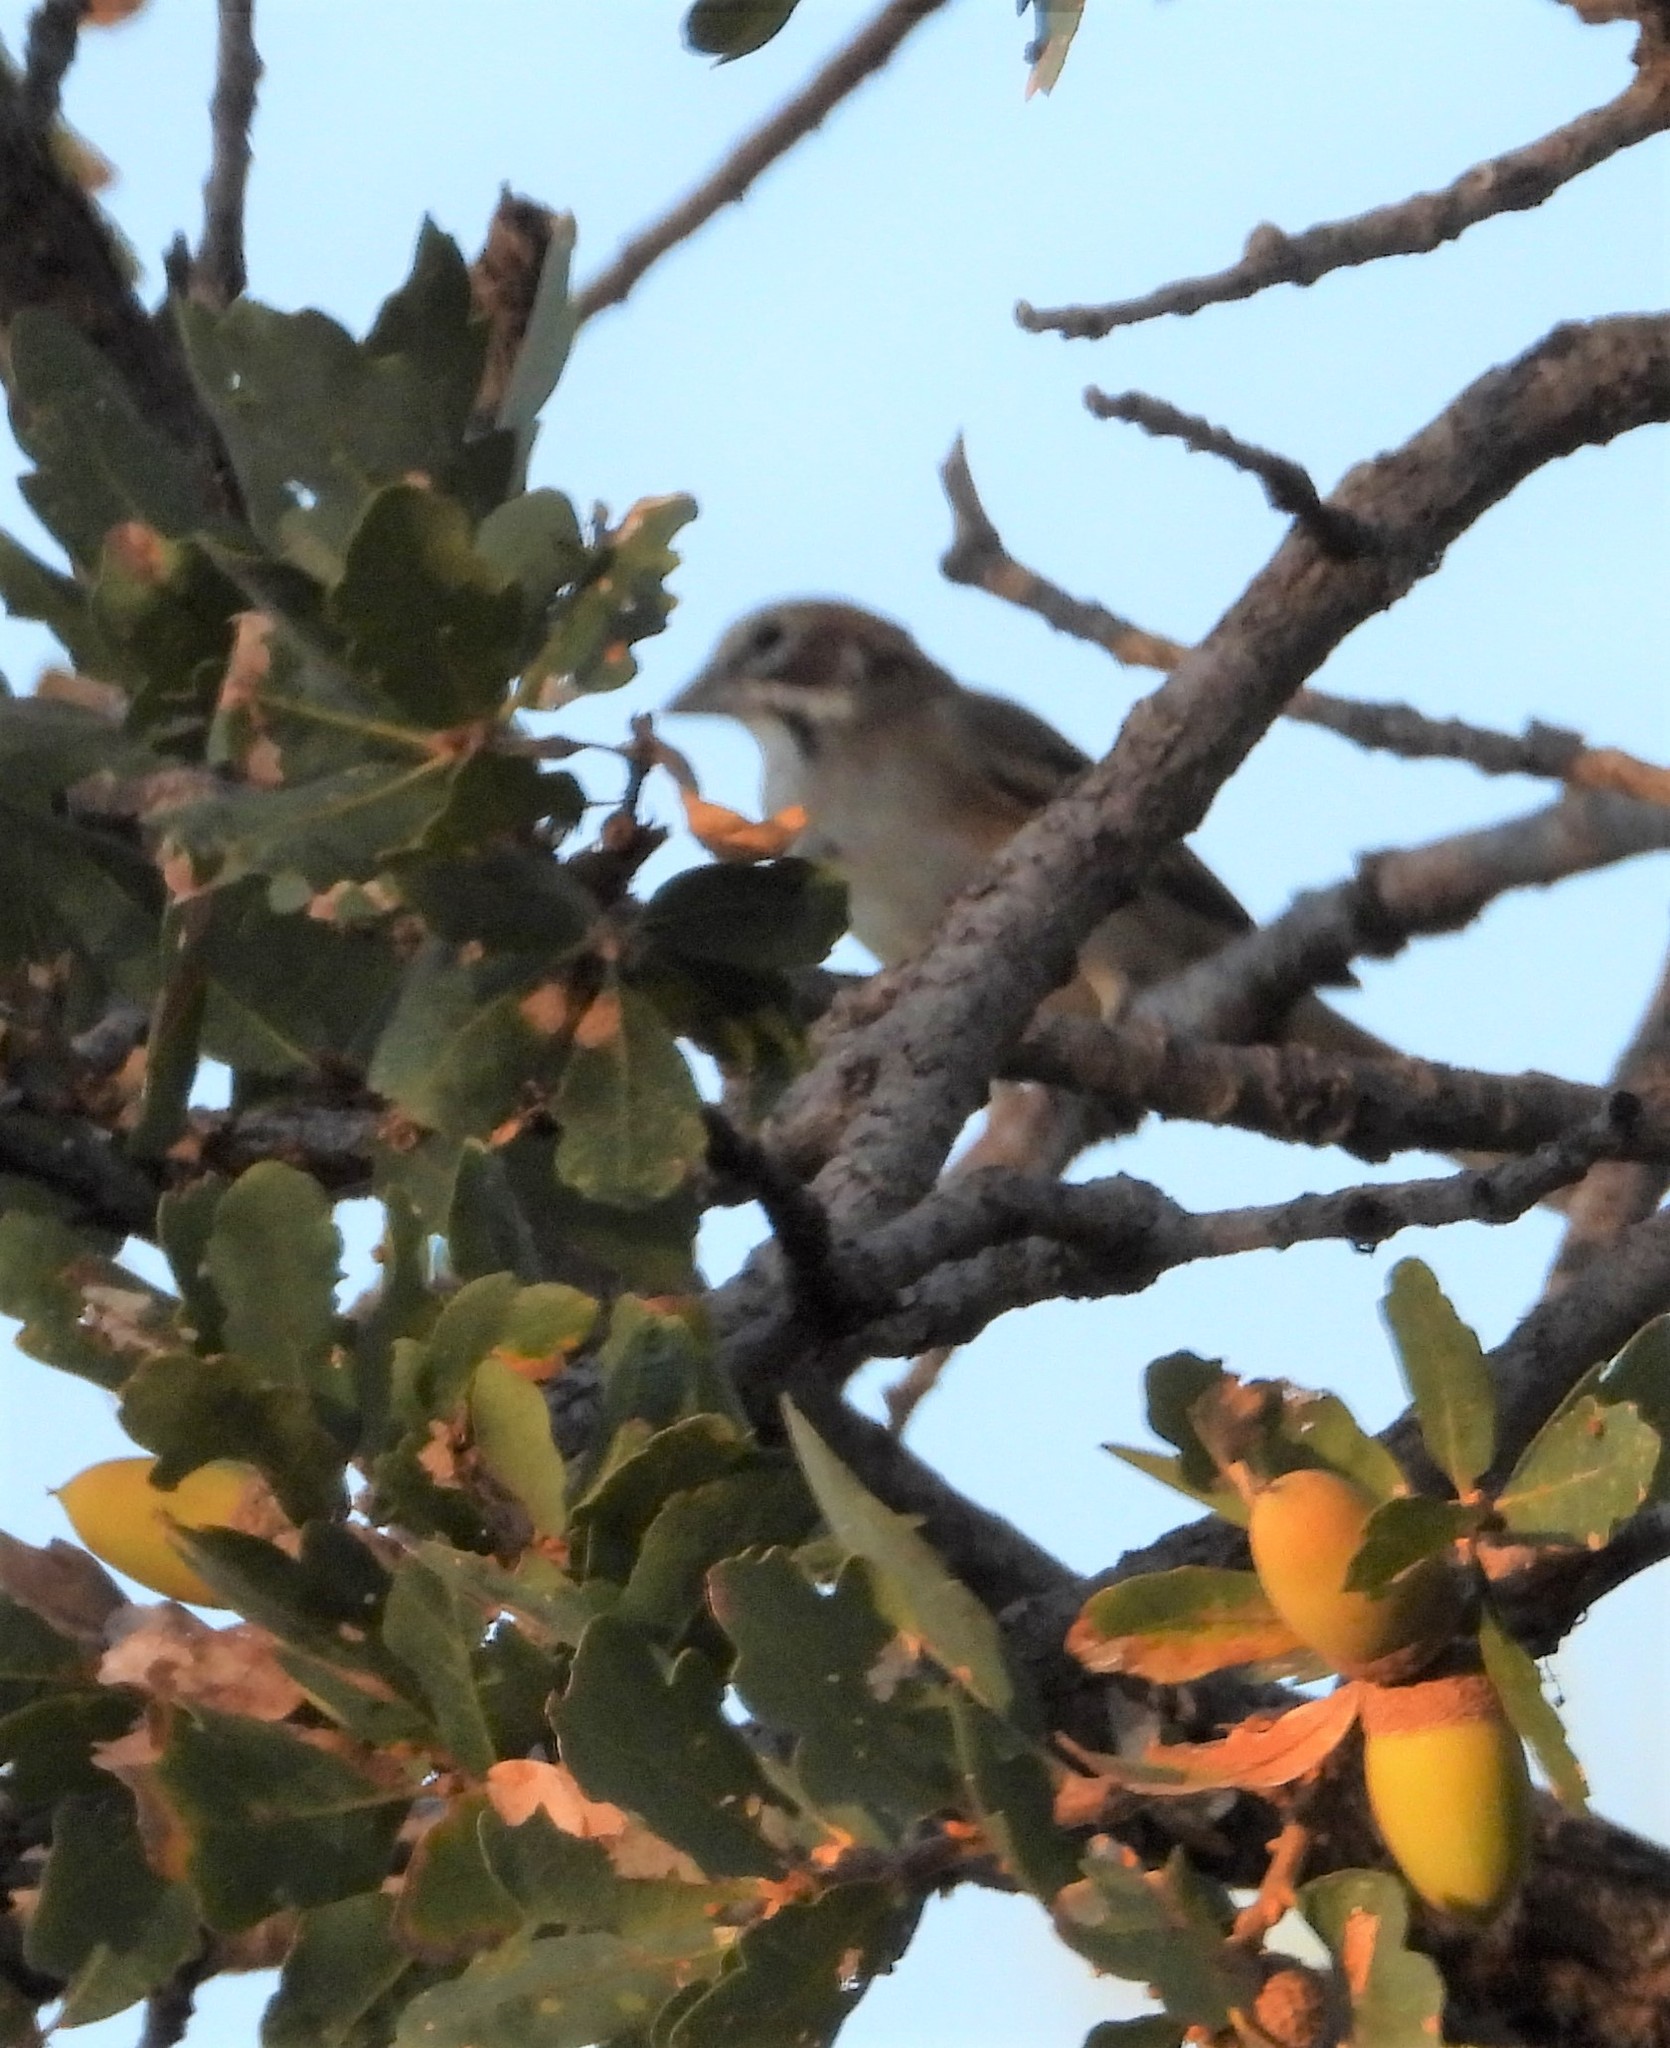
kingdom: Animalia
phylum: Chordata
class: Aves
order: Passeriformes
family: Passerellidae
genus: Chondestes
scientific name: Chondestes grammacus
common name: Lark sparrow
